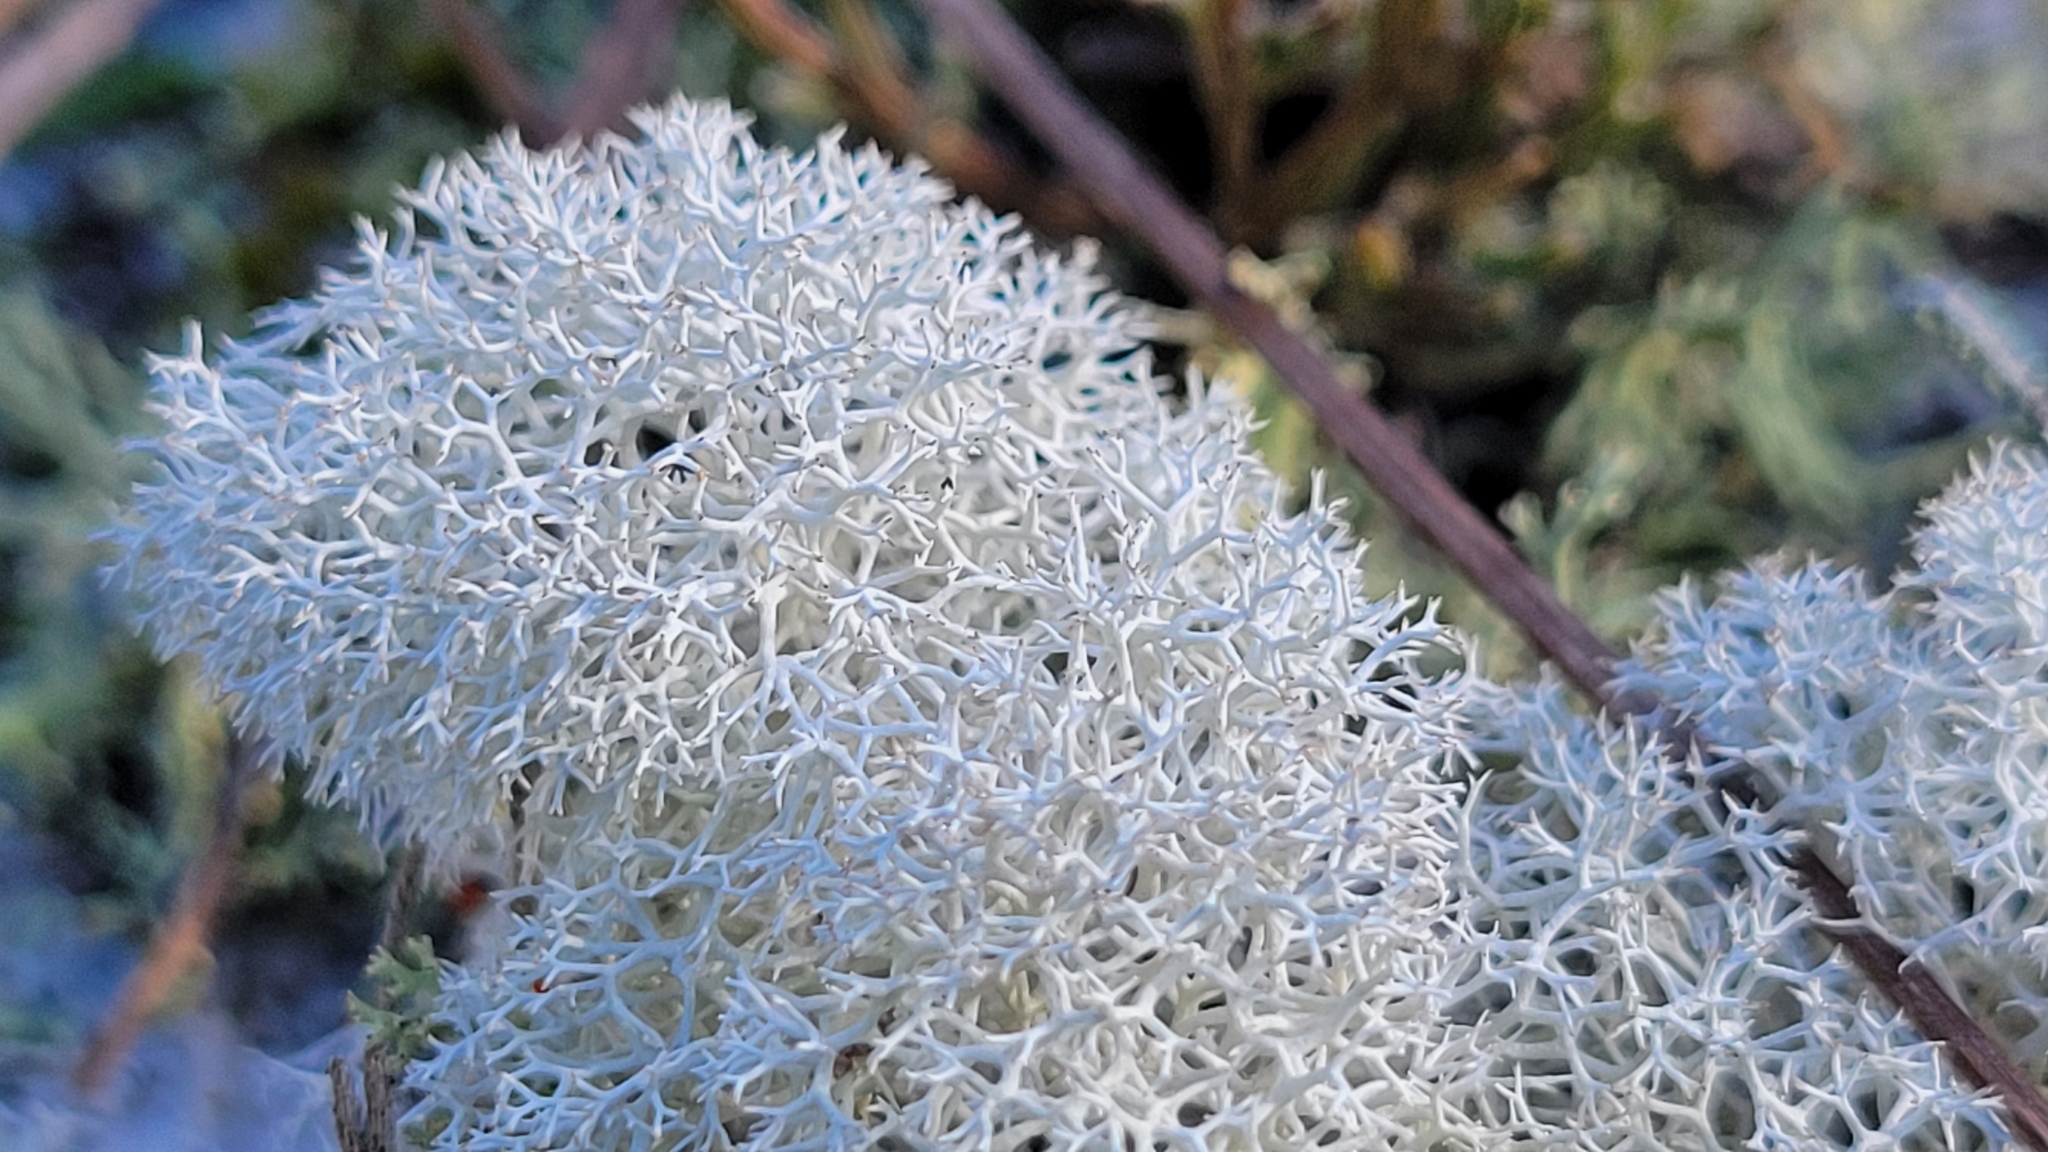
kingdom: Fungi
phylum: Ascomycota
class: Lecanoromycetes
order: Lecanorales
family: Cladoniaceae
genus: Cladonia
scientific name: Cladonia evansii
